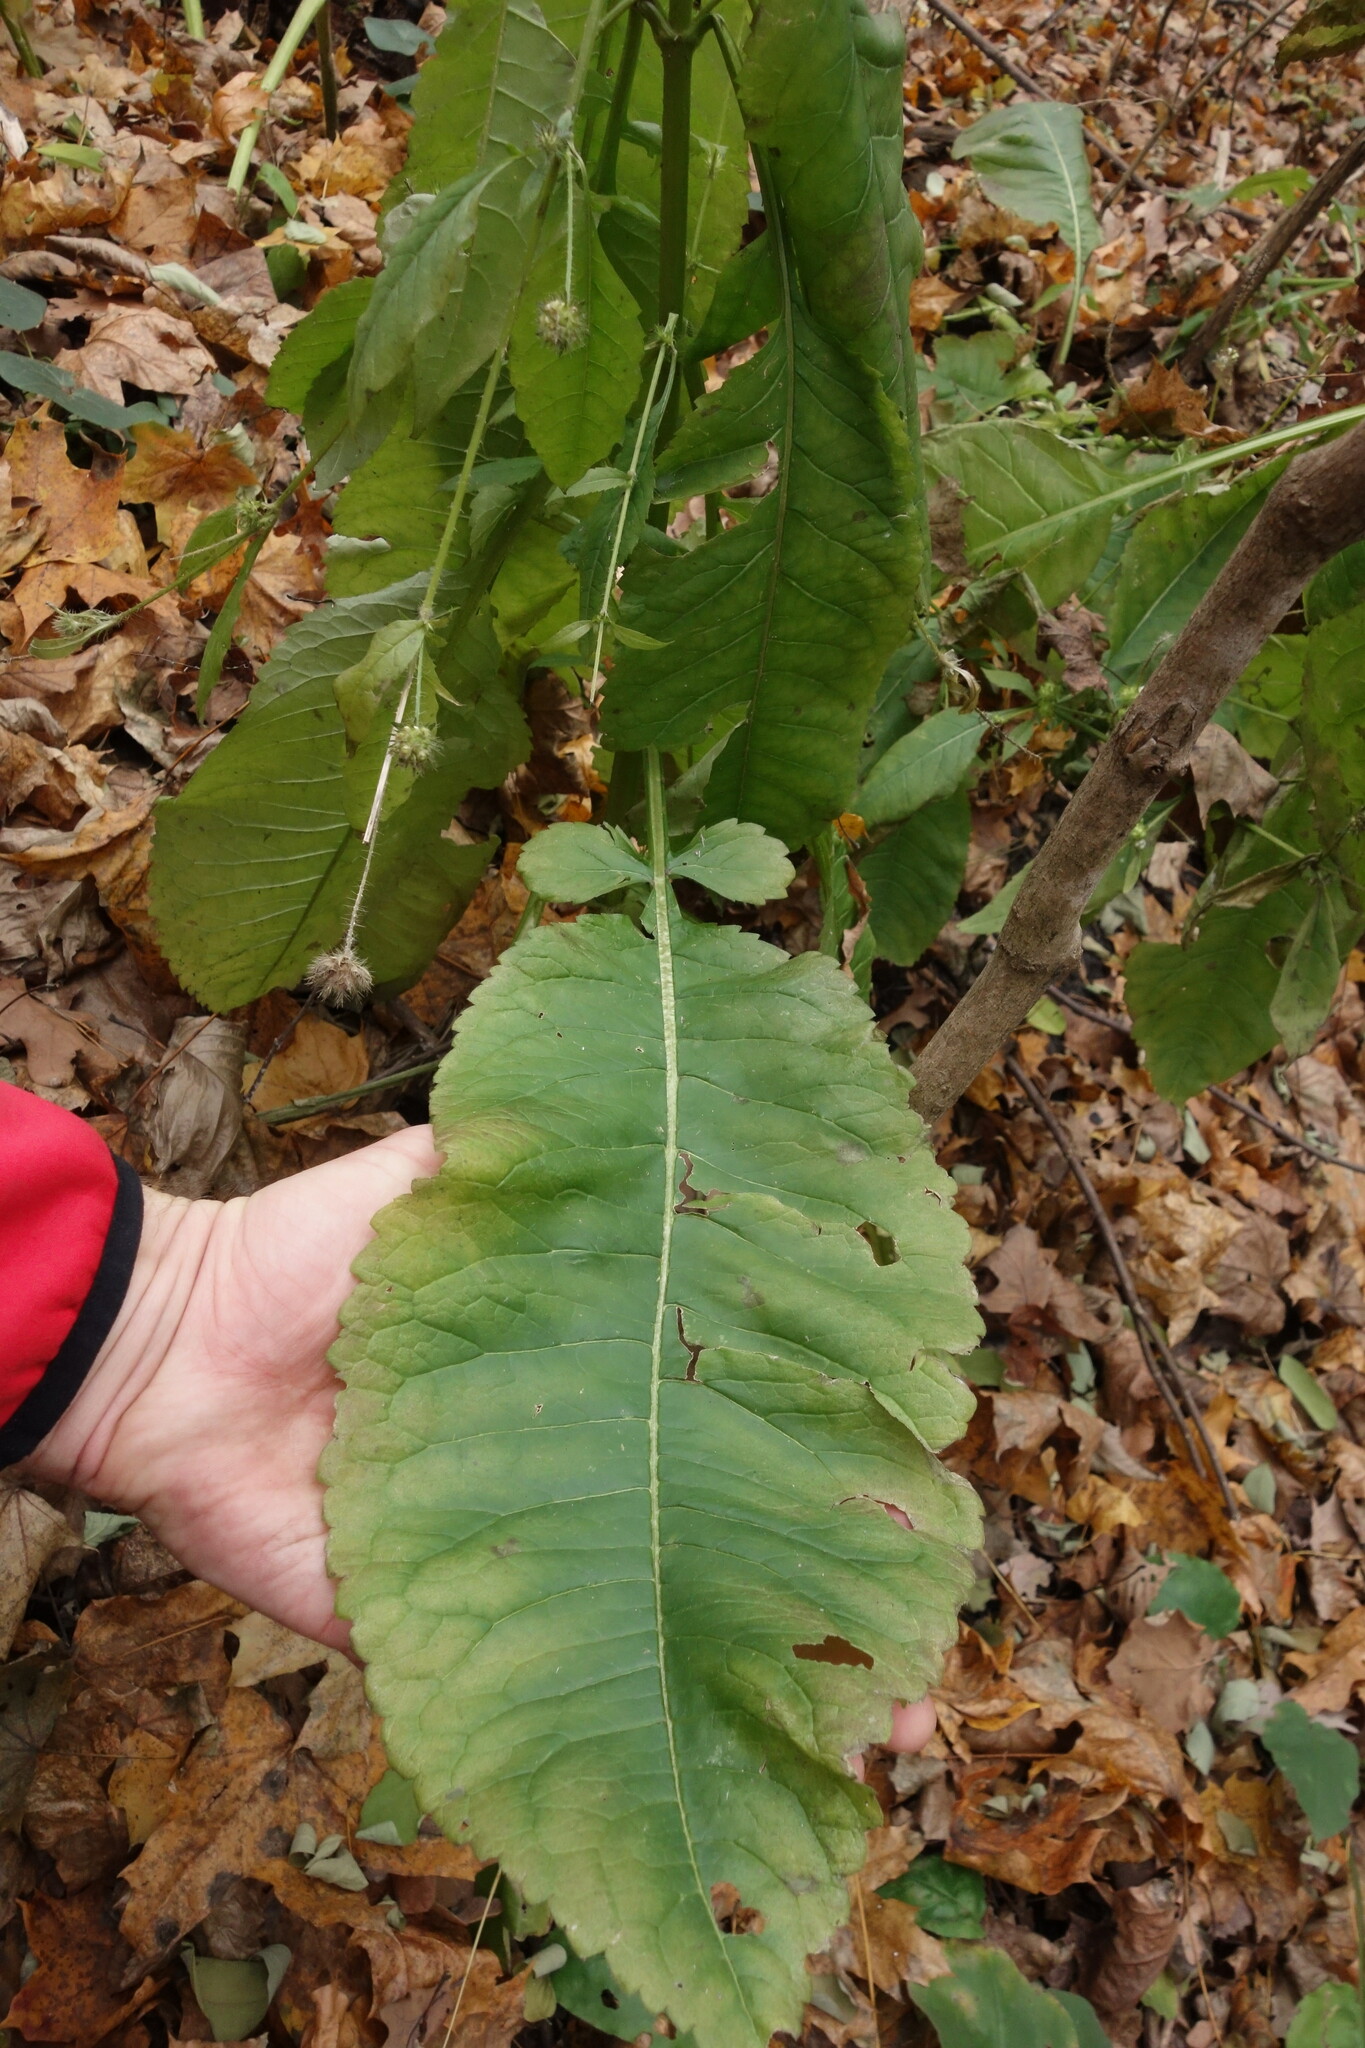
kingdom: Plantae
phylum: Tracheophyta
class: Magnoliopsida
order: Dipsacales
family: Caprifoliaceae
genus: Dipsacus
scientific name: Dipsacus pilosus
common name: Small teasel
